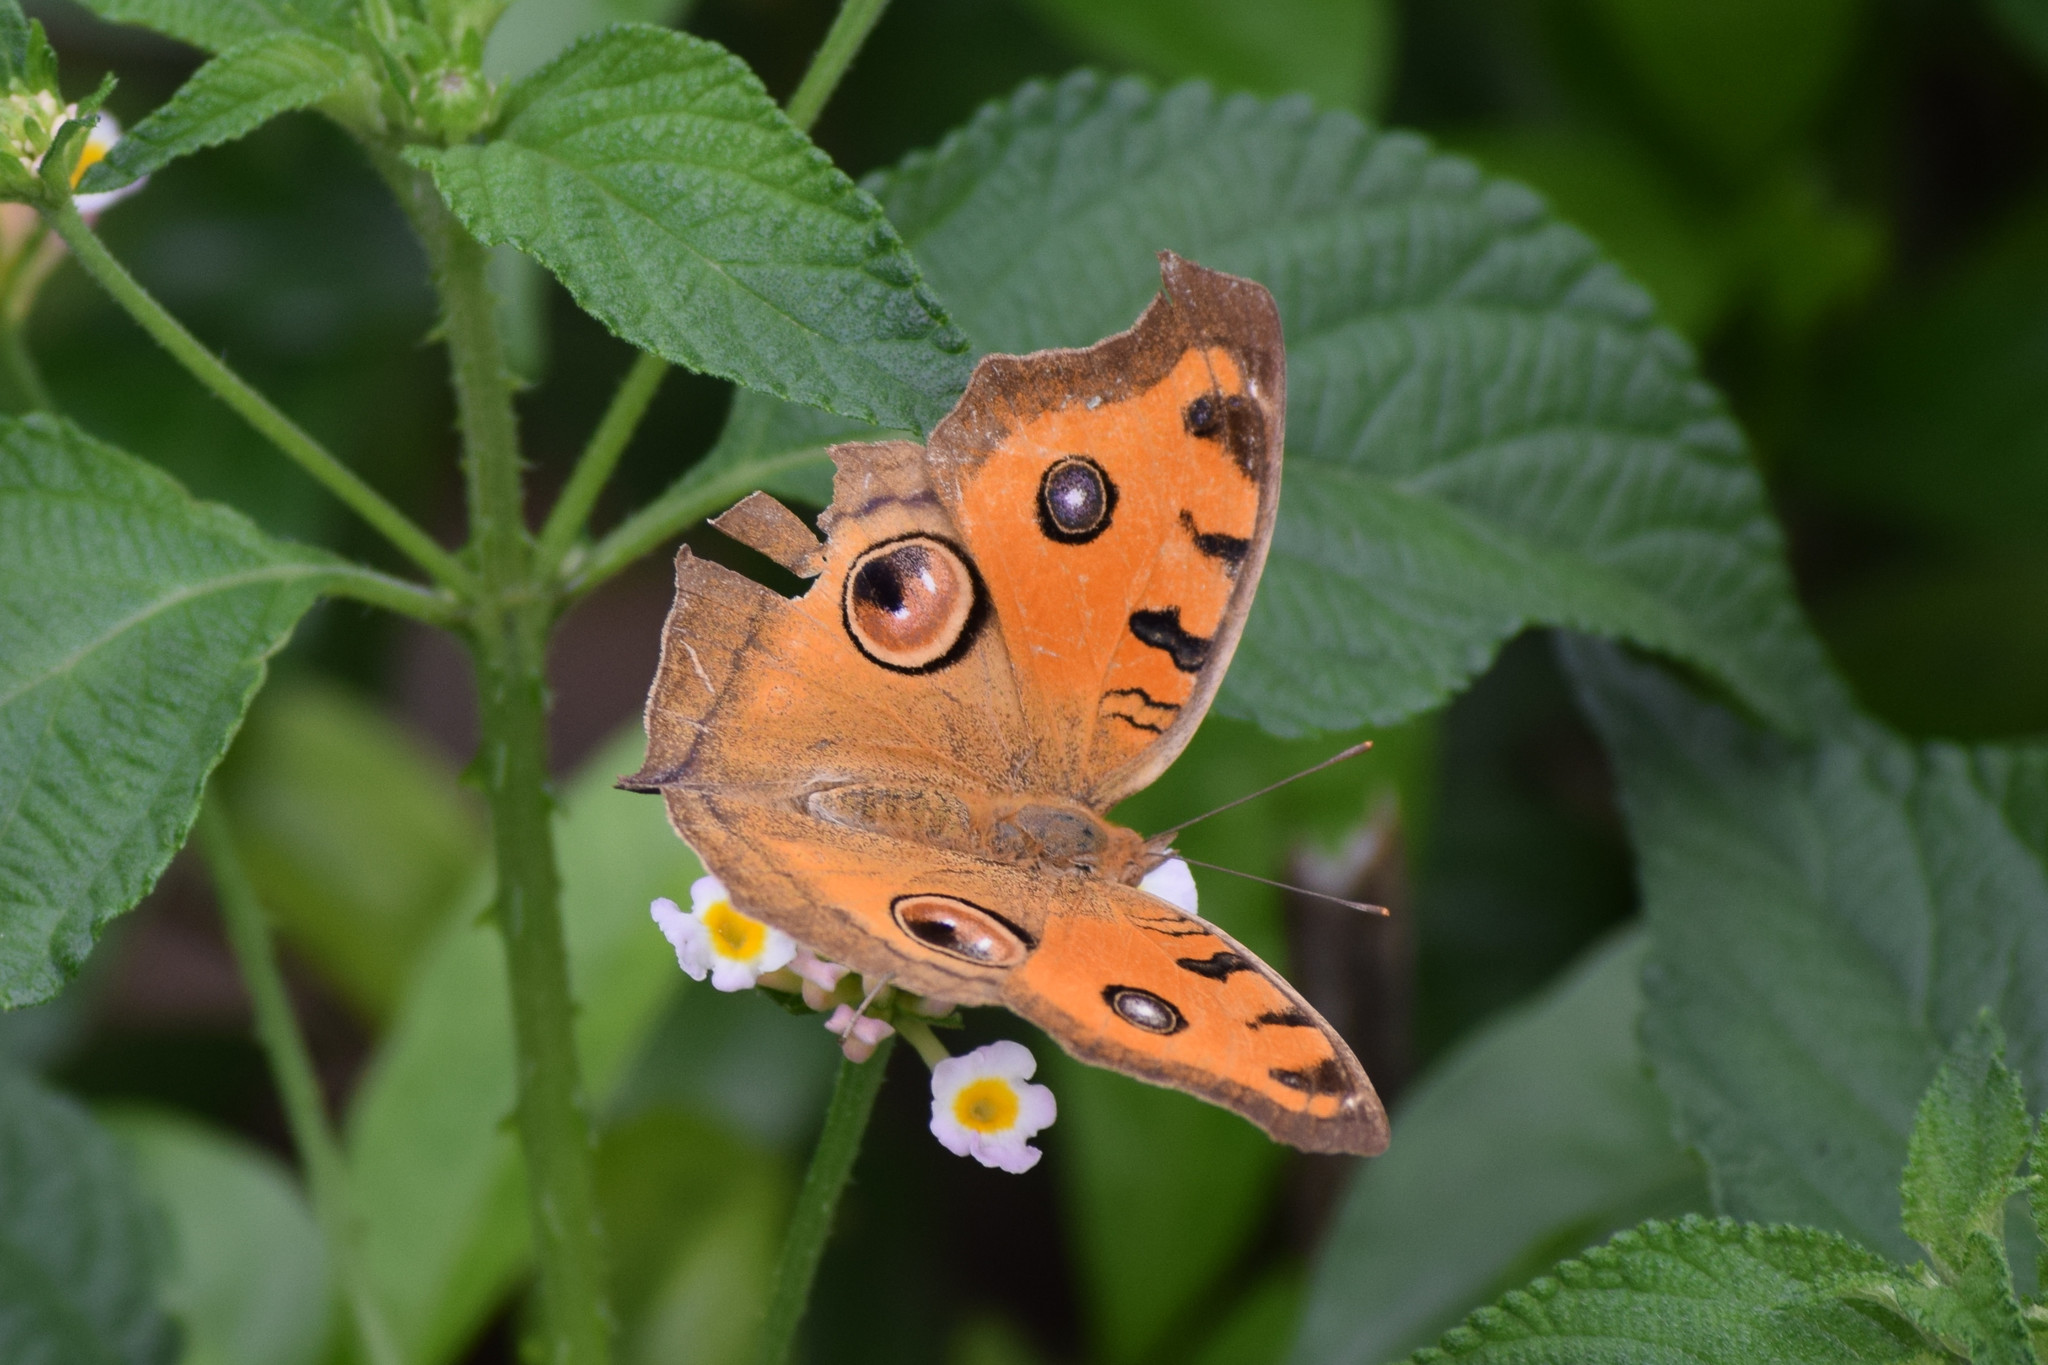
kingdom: Animalia
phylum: Arthropoda
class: Insecta
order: Lepidoptera
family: Nymphalidae
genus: Junonia
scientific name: Junonia almana
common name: Peacock pansy
